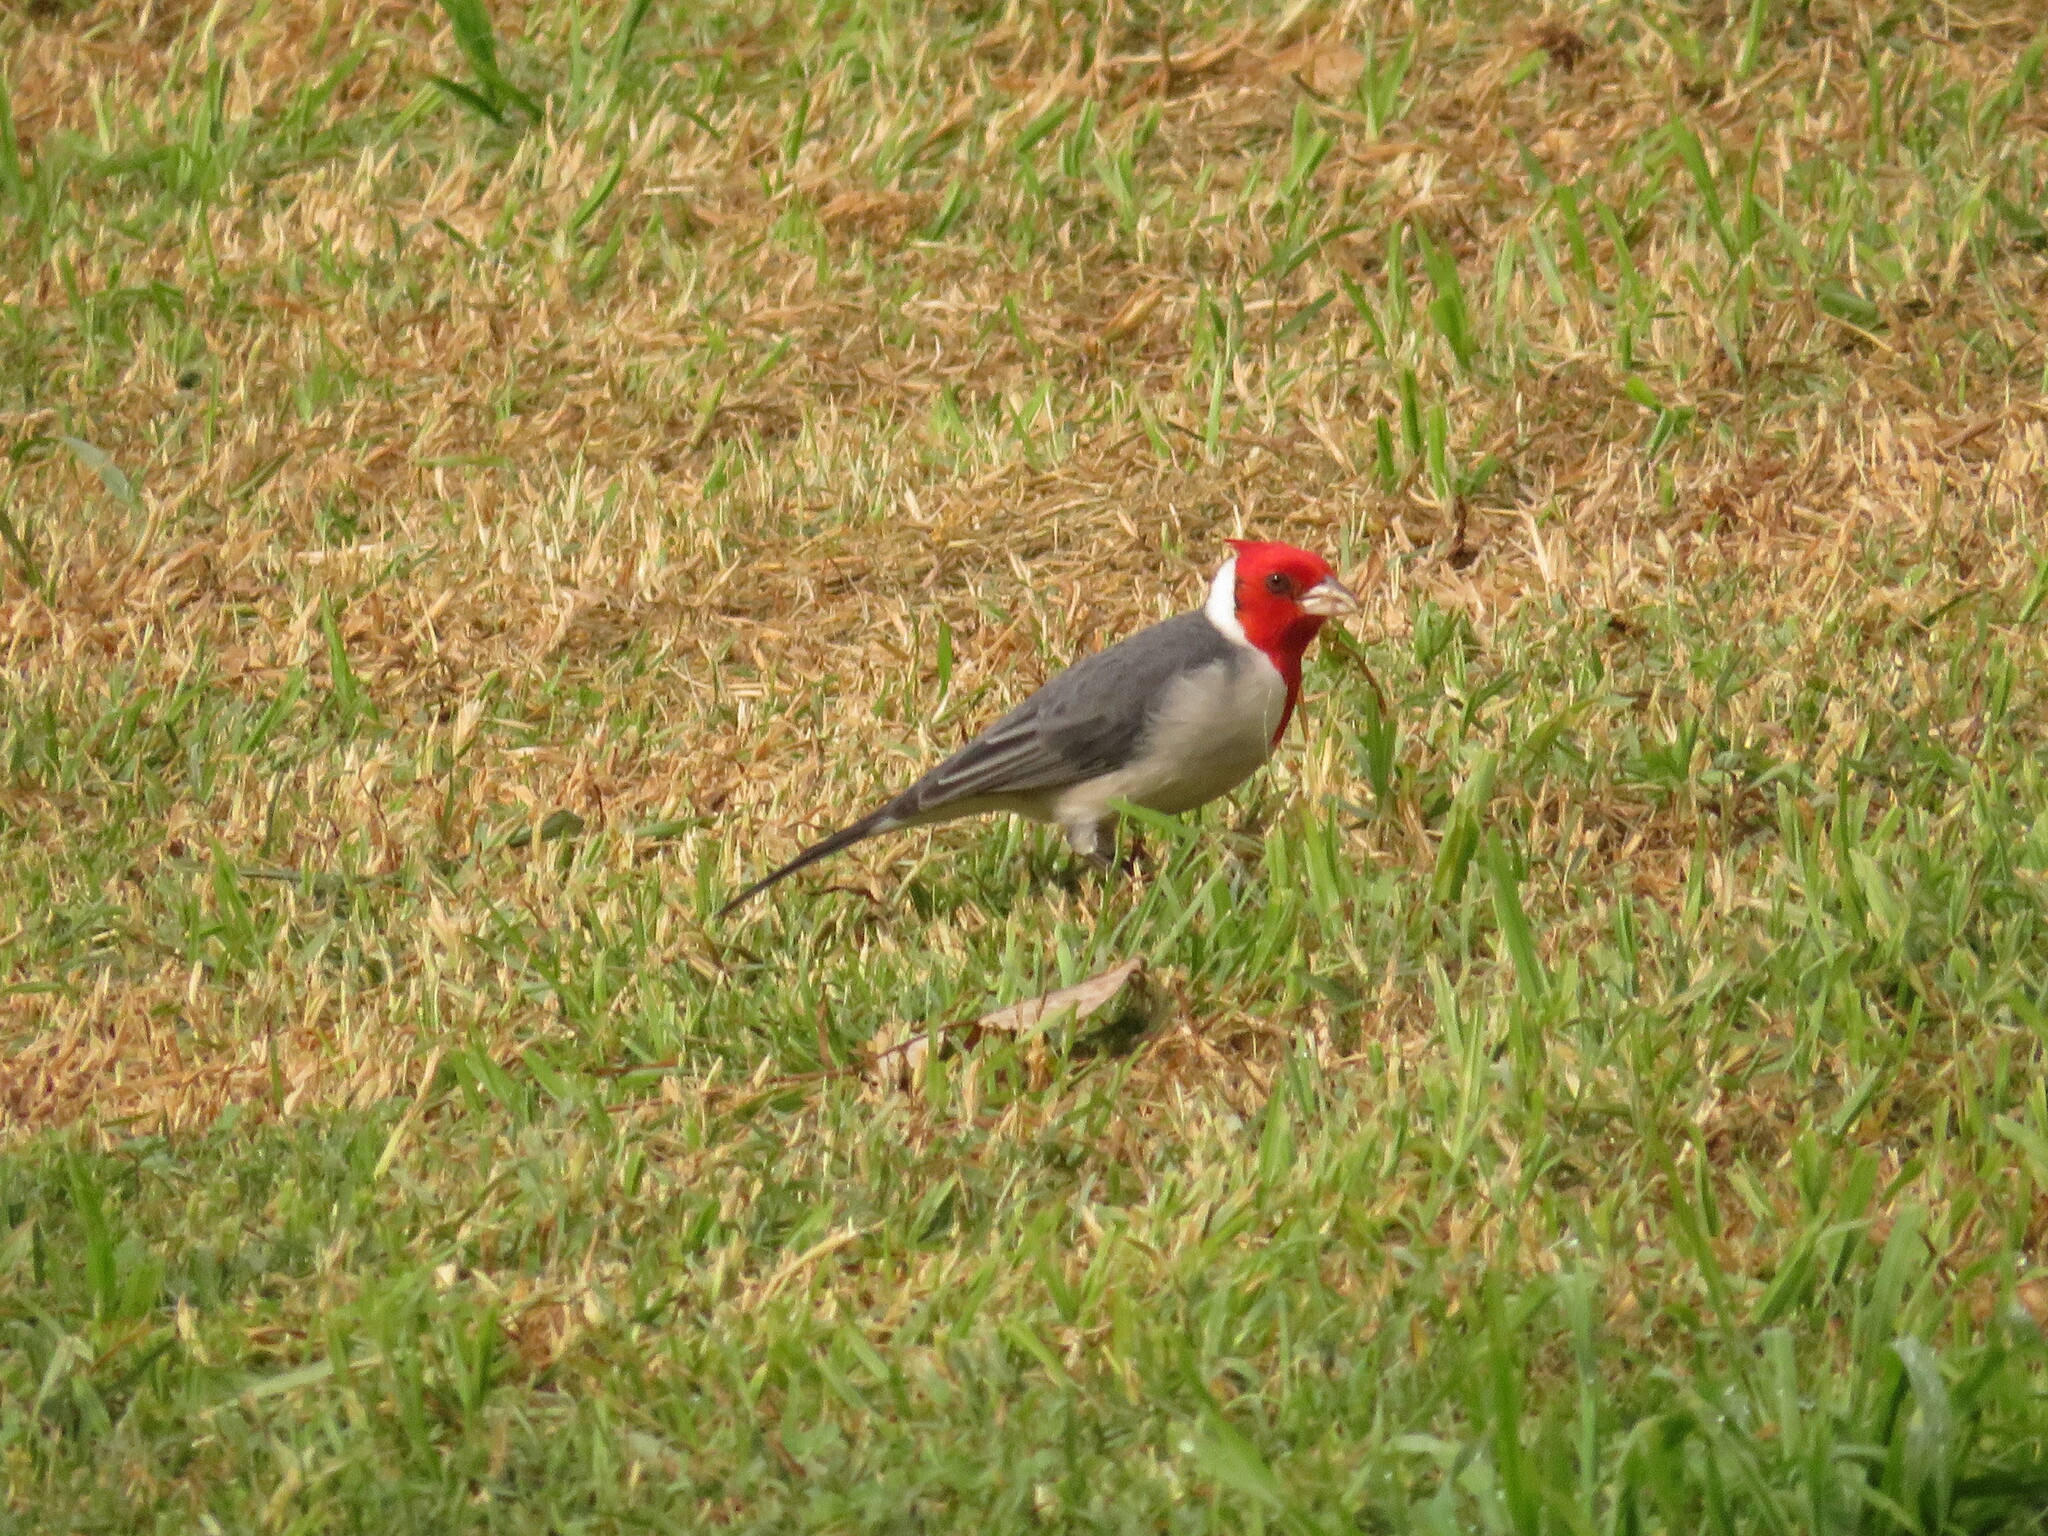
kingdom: Animalia
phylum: Chordata
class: Aves
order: Passeriformes
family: Thraupidae
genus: Paroaria
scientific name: Paroaria coronata
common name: Red-crested cardinal
